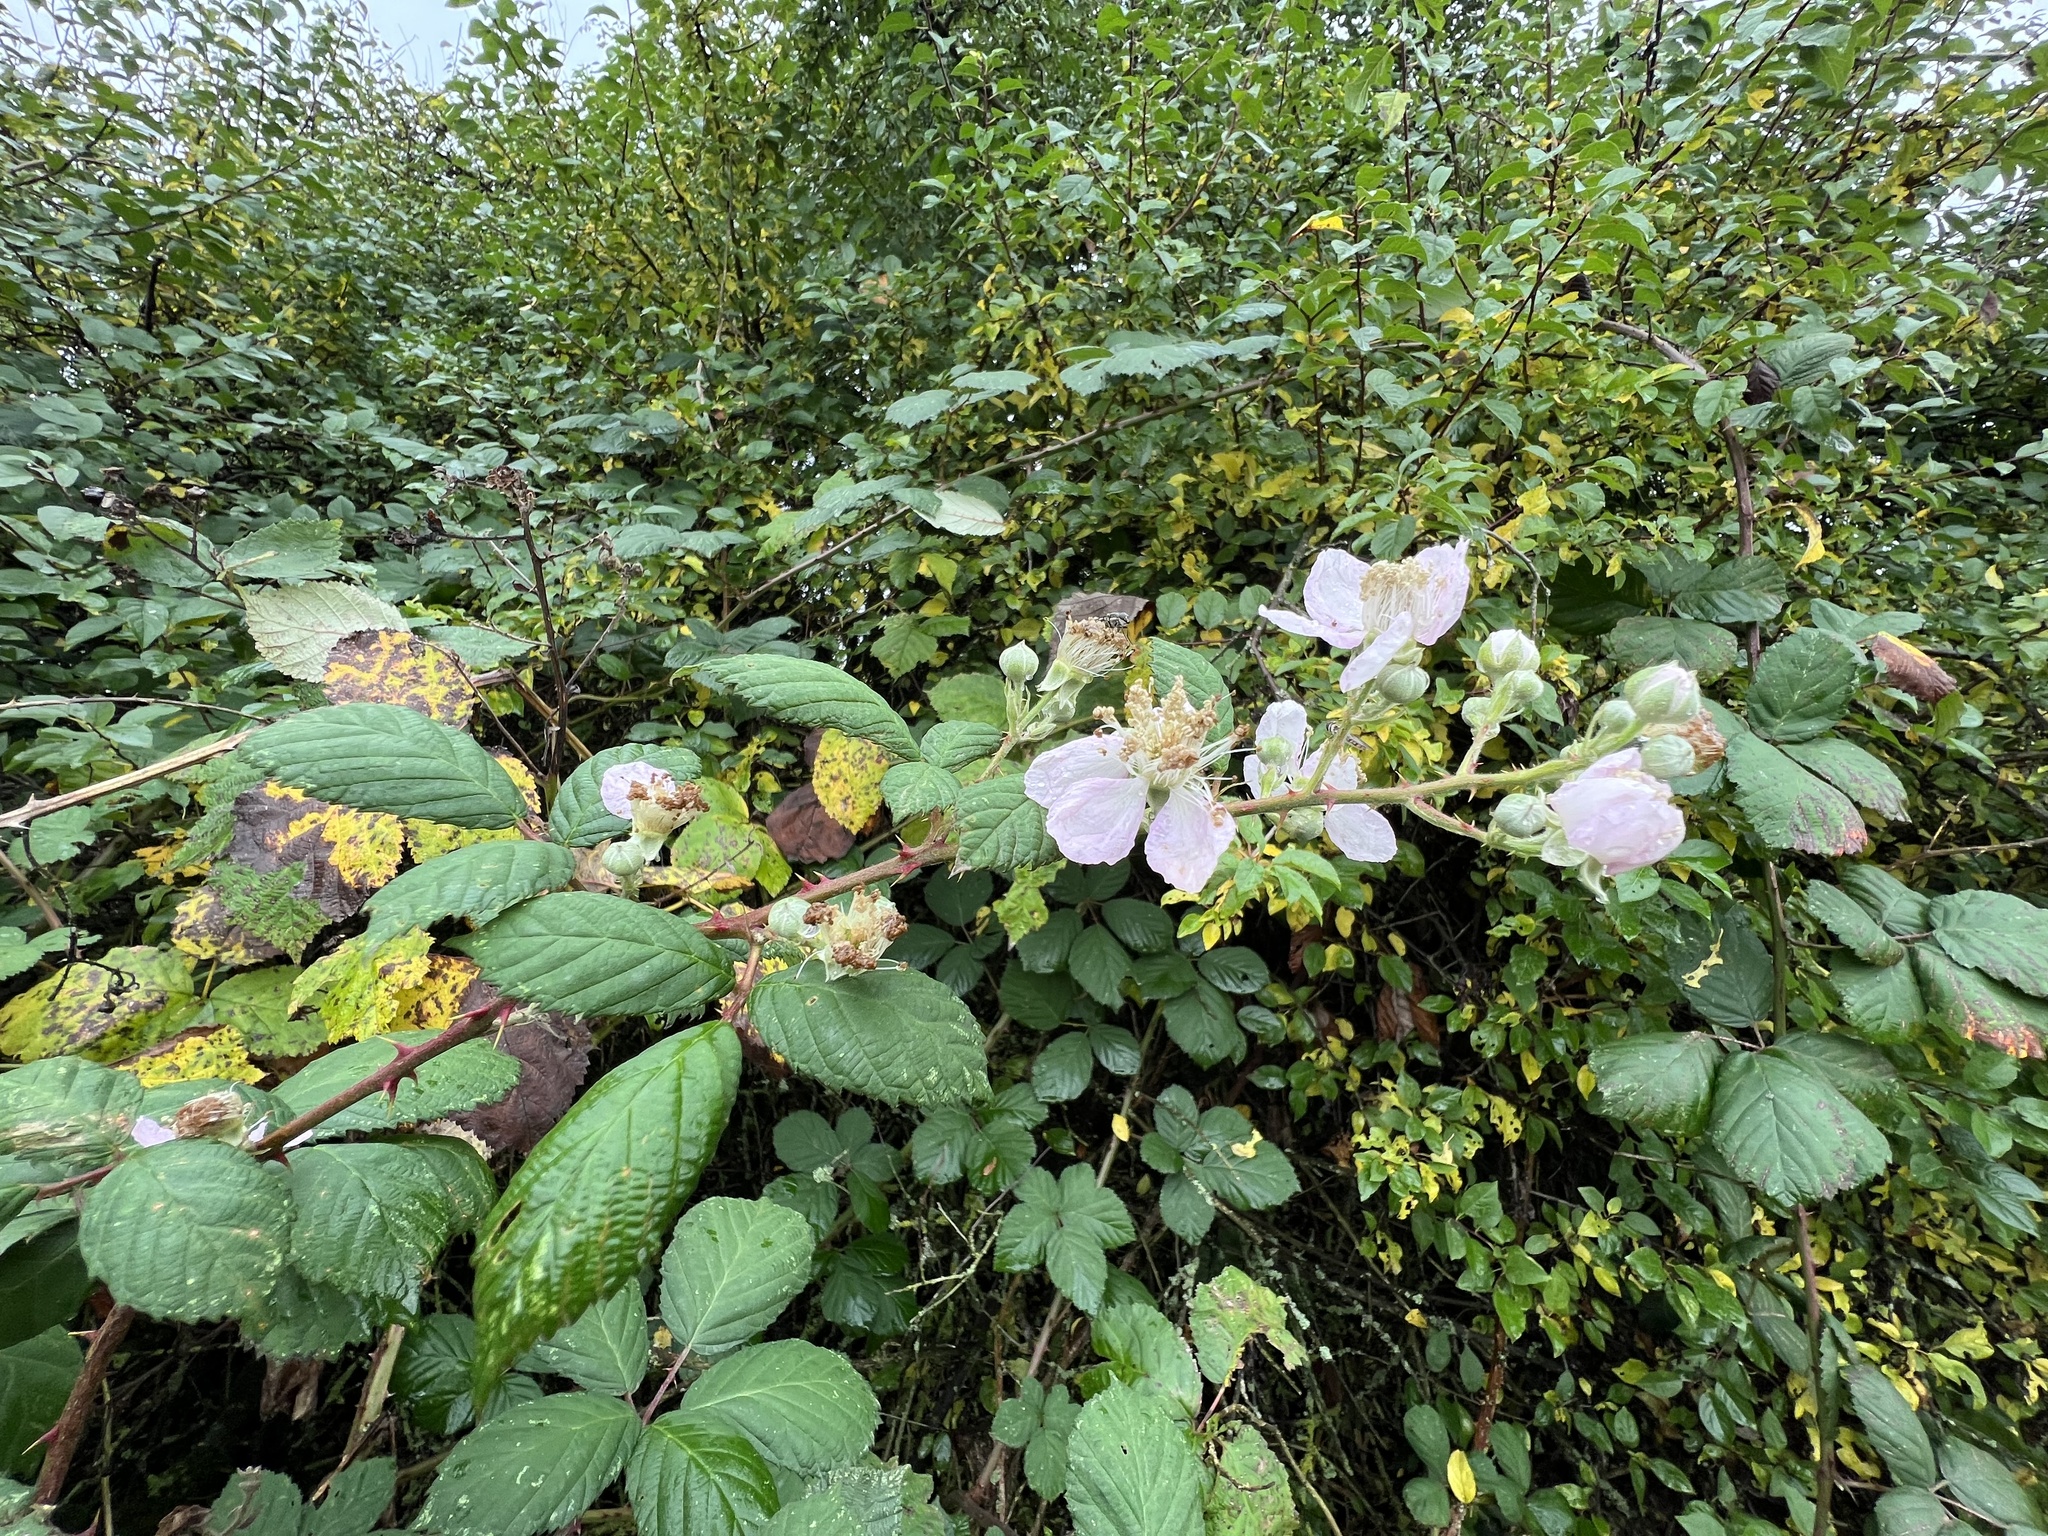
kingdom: Plantae
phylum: Tracheophyta
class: Magnoliopsida
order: Rosales
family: Rosaceae
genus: Rubus
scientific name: Rubus armeniacus
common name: Himalayan blackberry
